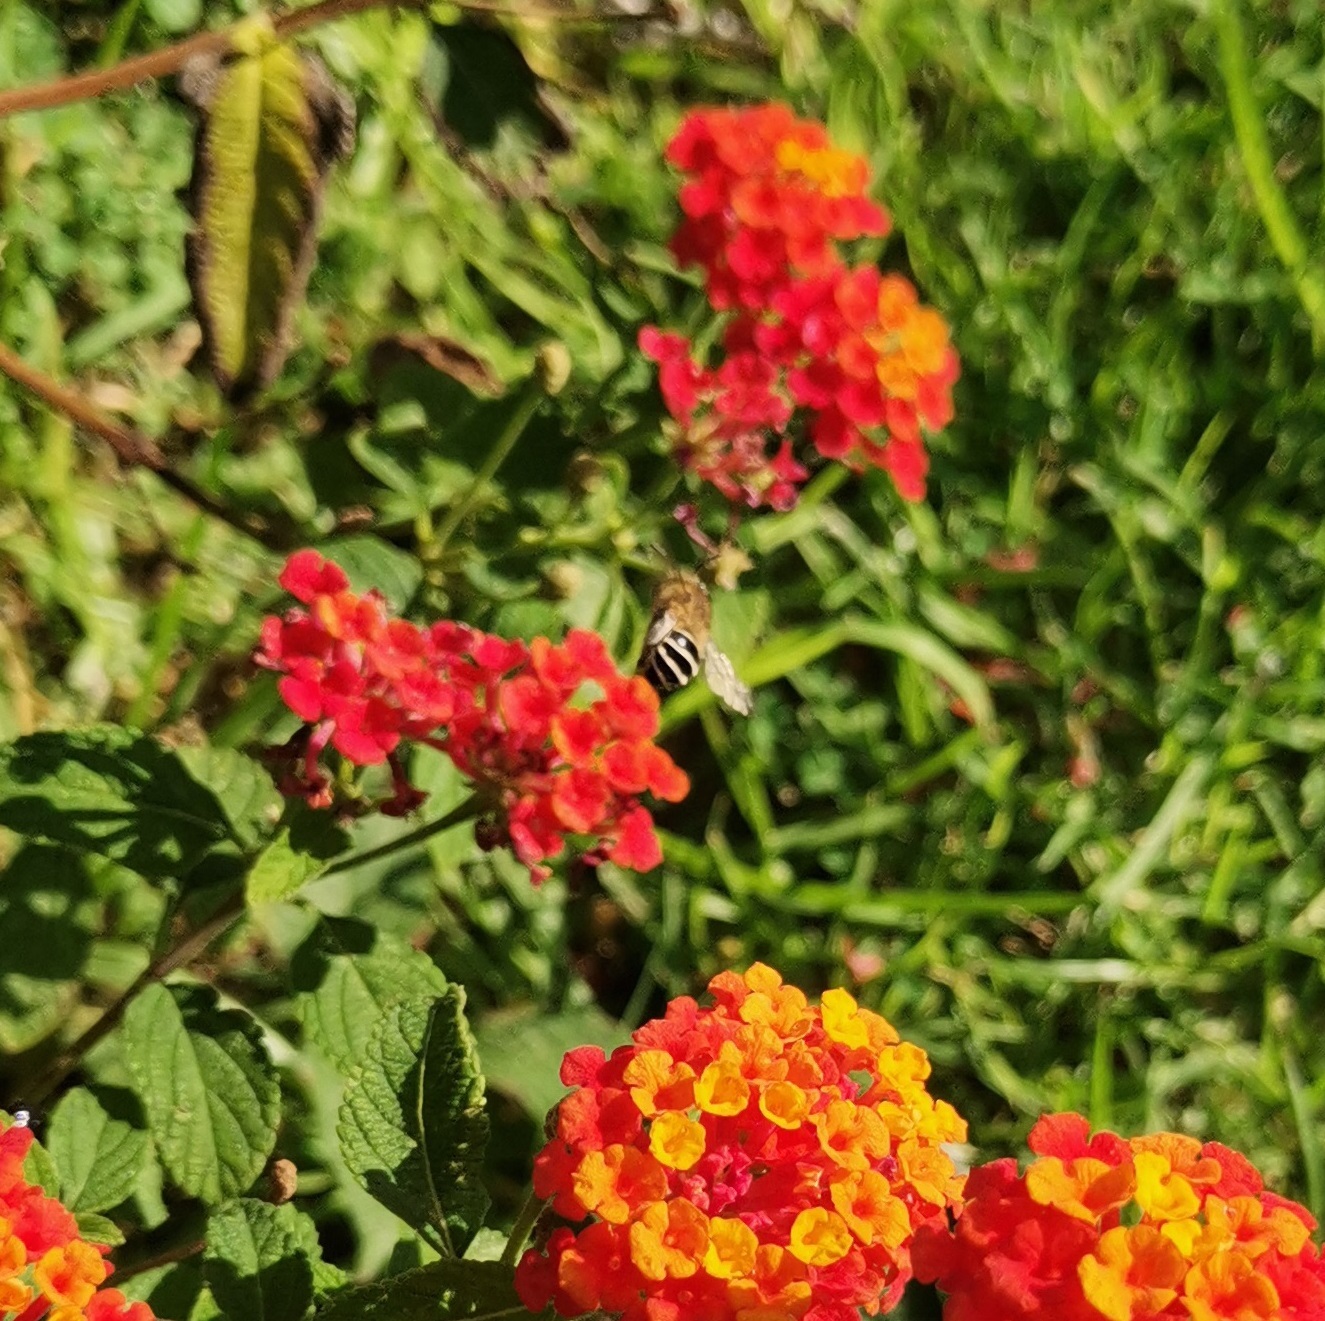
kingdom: Animalia
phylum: Arthropoda
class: Insecta
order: Hymenoptera
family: Apidae
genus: Anthophora
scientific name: Anthophora californica
